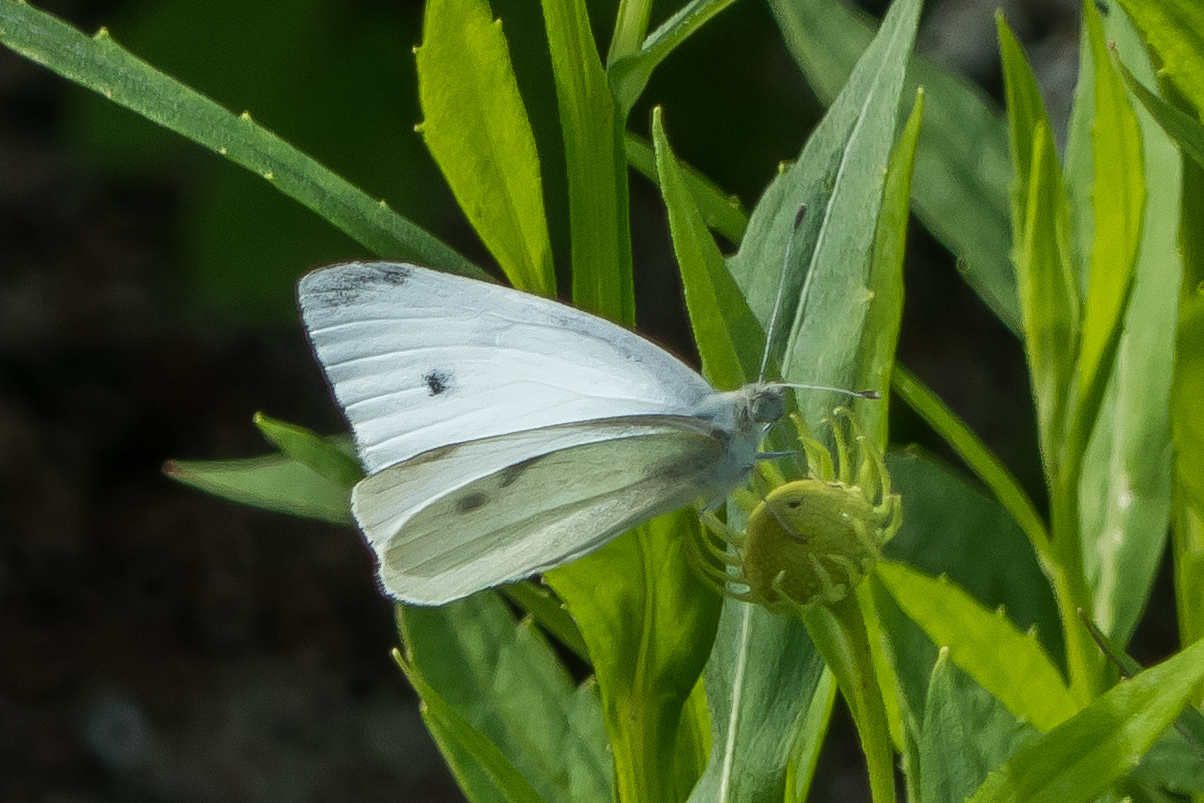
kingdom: Animalia
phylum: Arthropoda
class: Insecta
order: Lepidoptera
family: Pieridae
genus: Pieris
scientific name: Pieris rapae
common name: Small white
